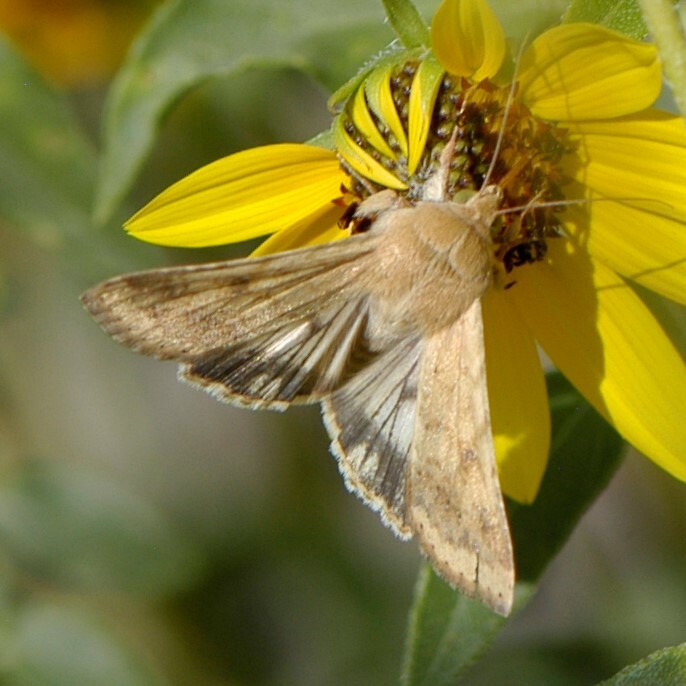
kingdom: Animalia
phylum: Arthropoda
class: Insecta
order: Lepidoptera
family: Noctuidae
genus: Helicoverpa
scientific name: Helicoverpa zea
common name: Bollworm
